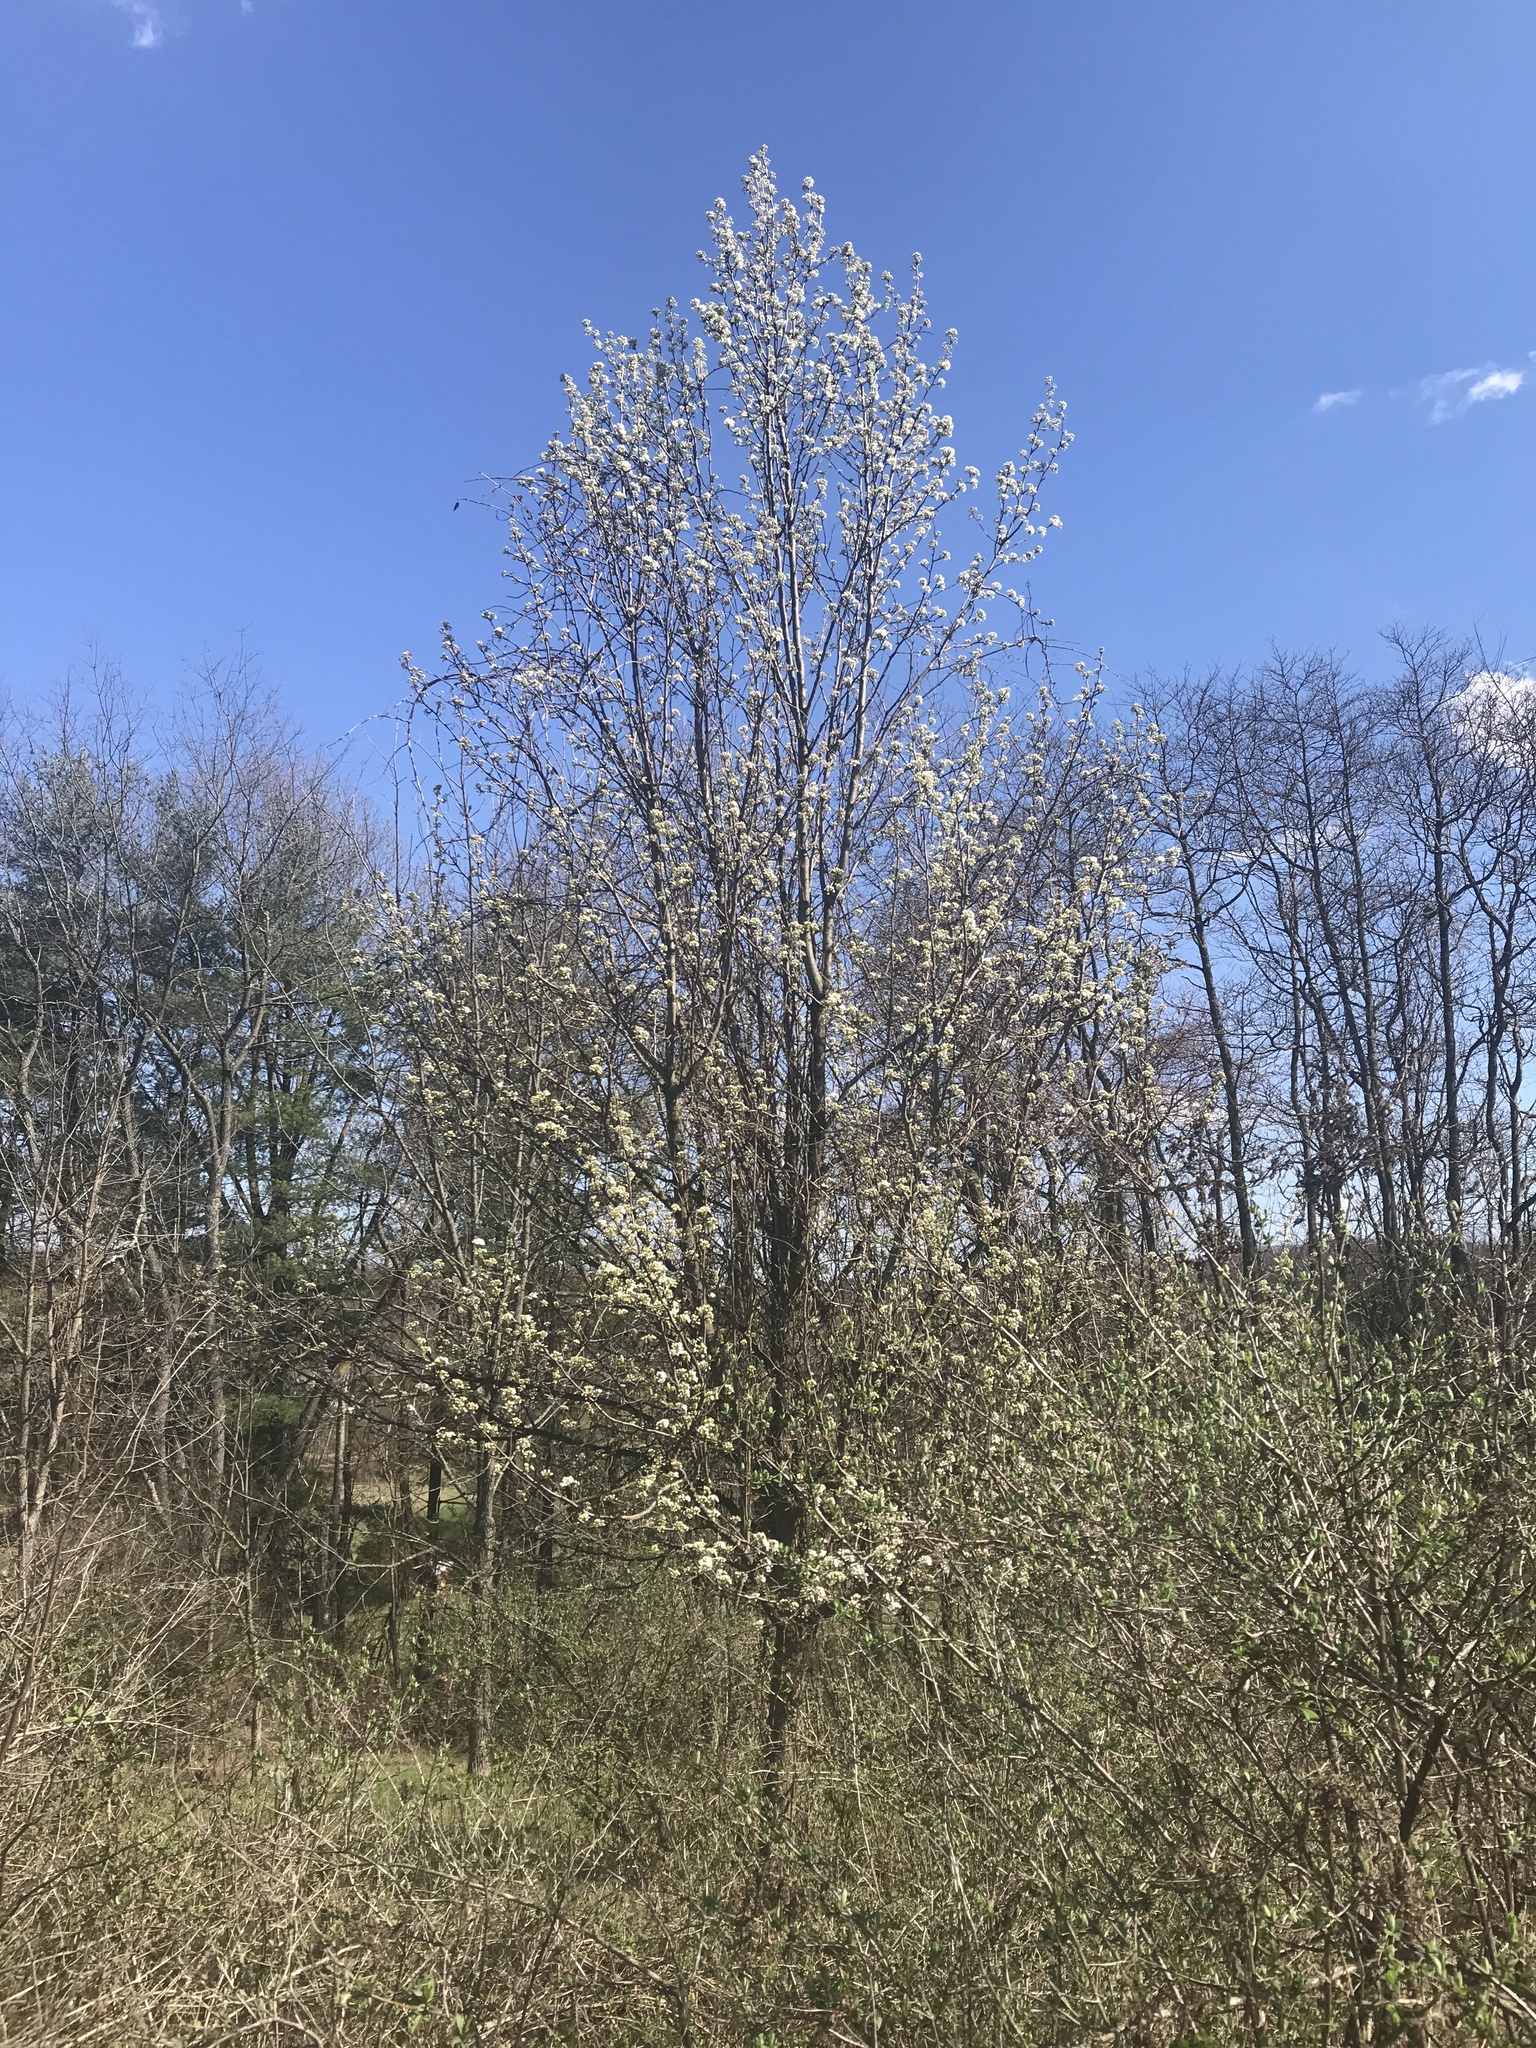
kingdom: Plantae
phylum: Tracheophyta
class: Magnoliopsida
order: Rosales
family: Rosaceae
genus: Pyrus
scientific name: Pyrus calleryana
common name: Callery pear
